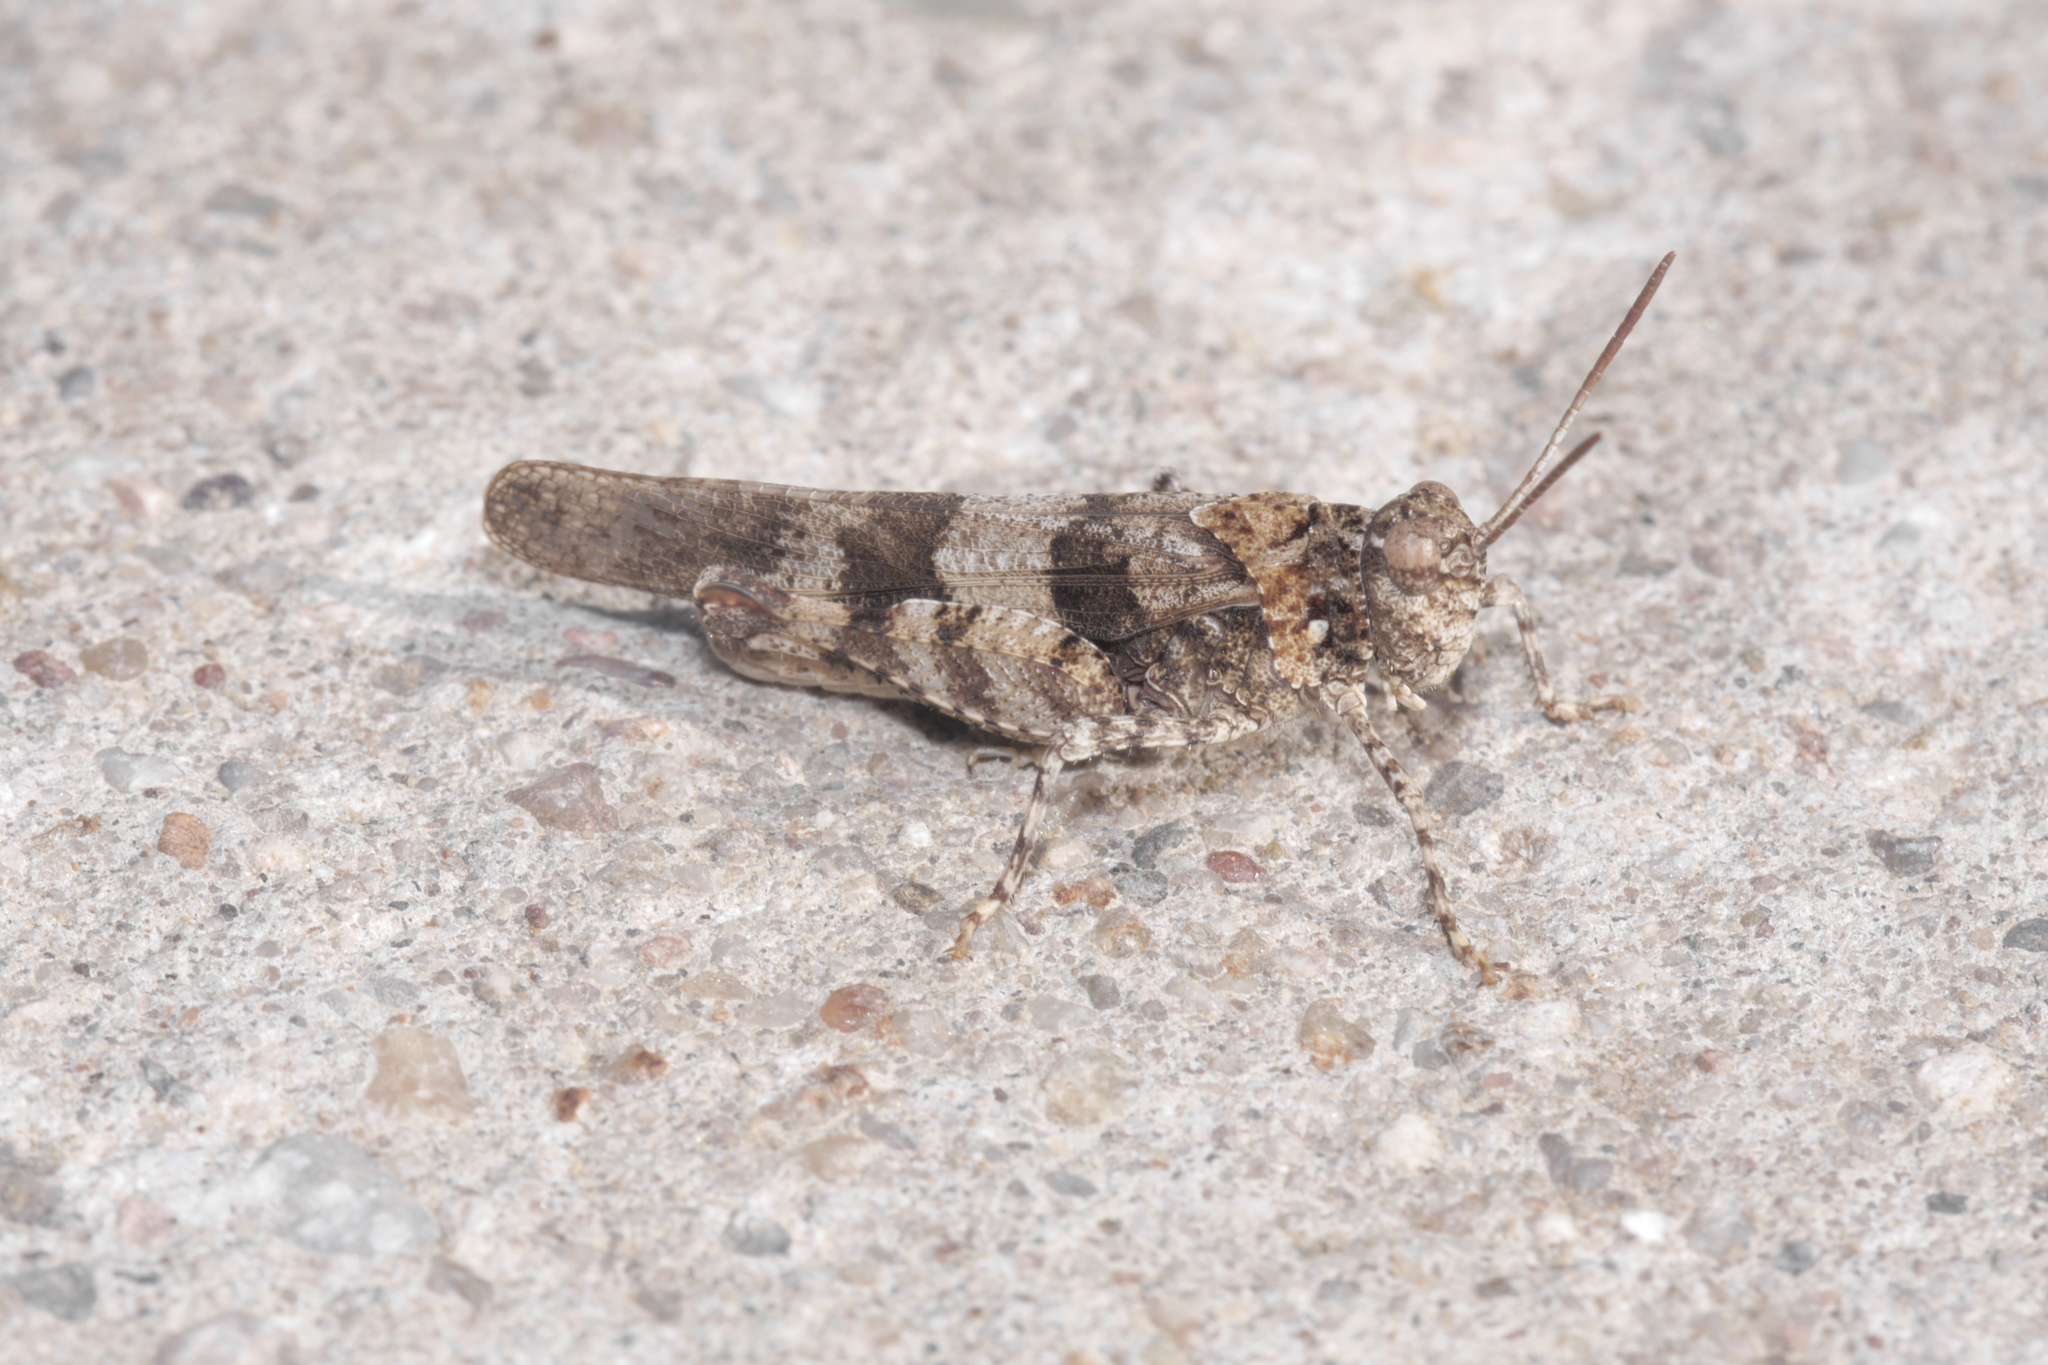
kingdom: Animalia
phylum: Arthropoda
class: Insecta
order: Orthoptera
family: Acrididae
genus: Oedipoda
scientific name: Oedipoda caerulescens
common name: Blue-winged grasshopper
